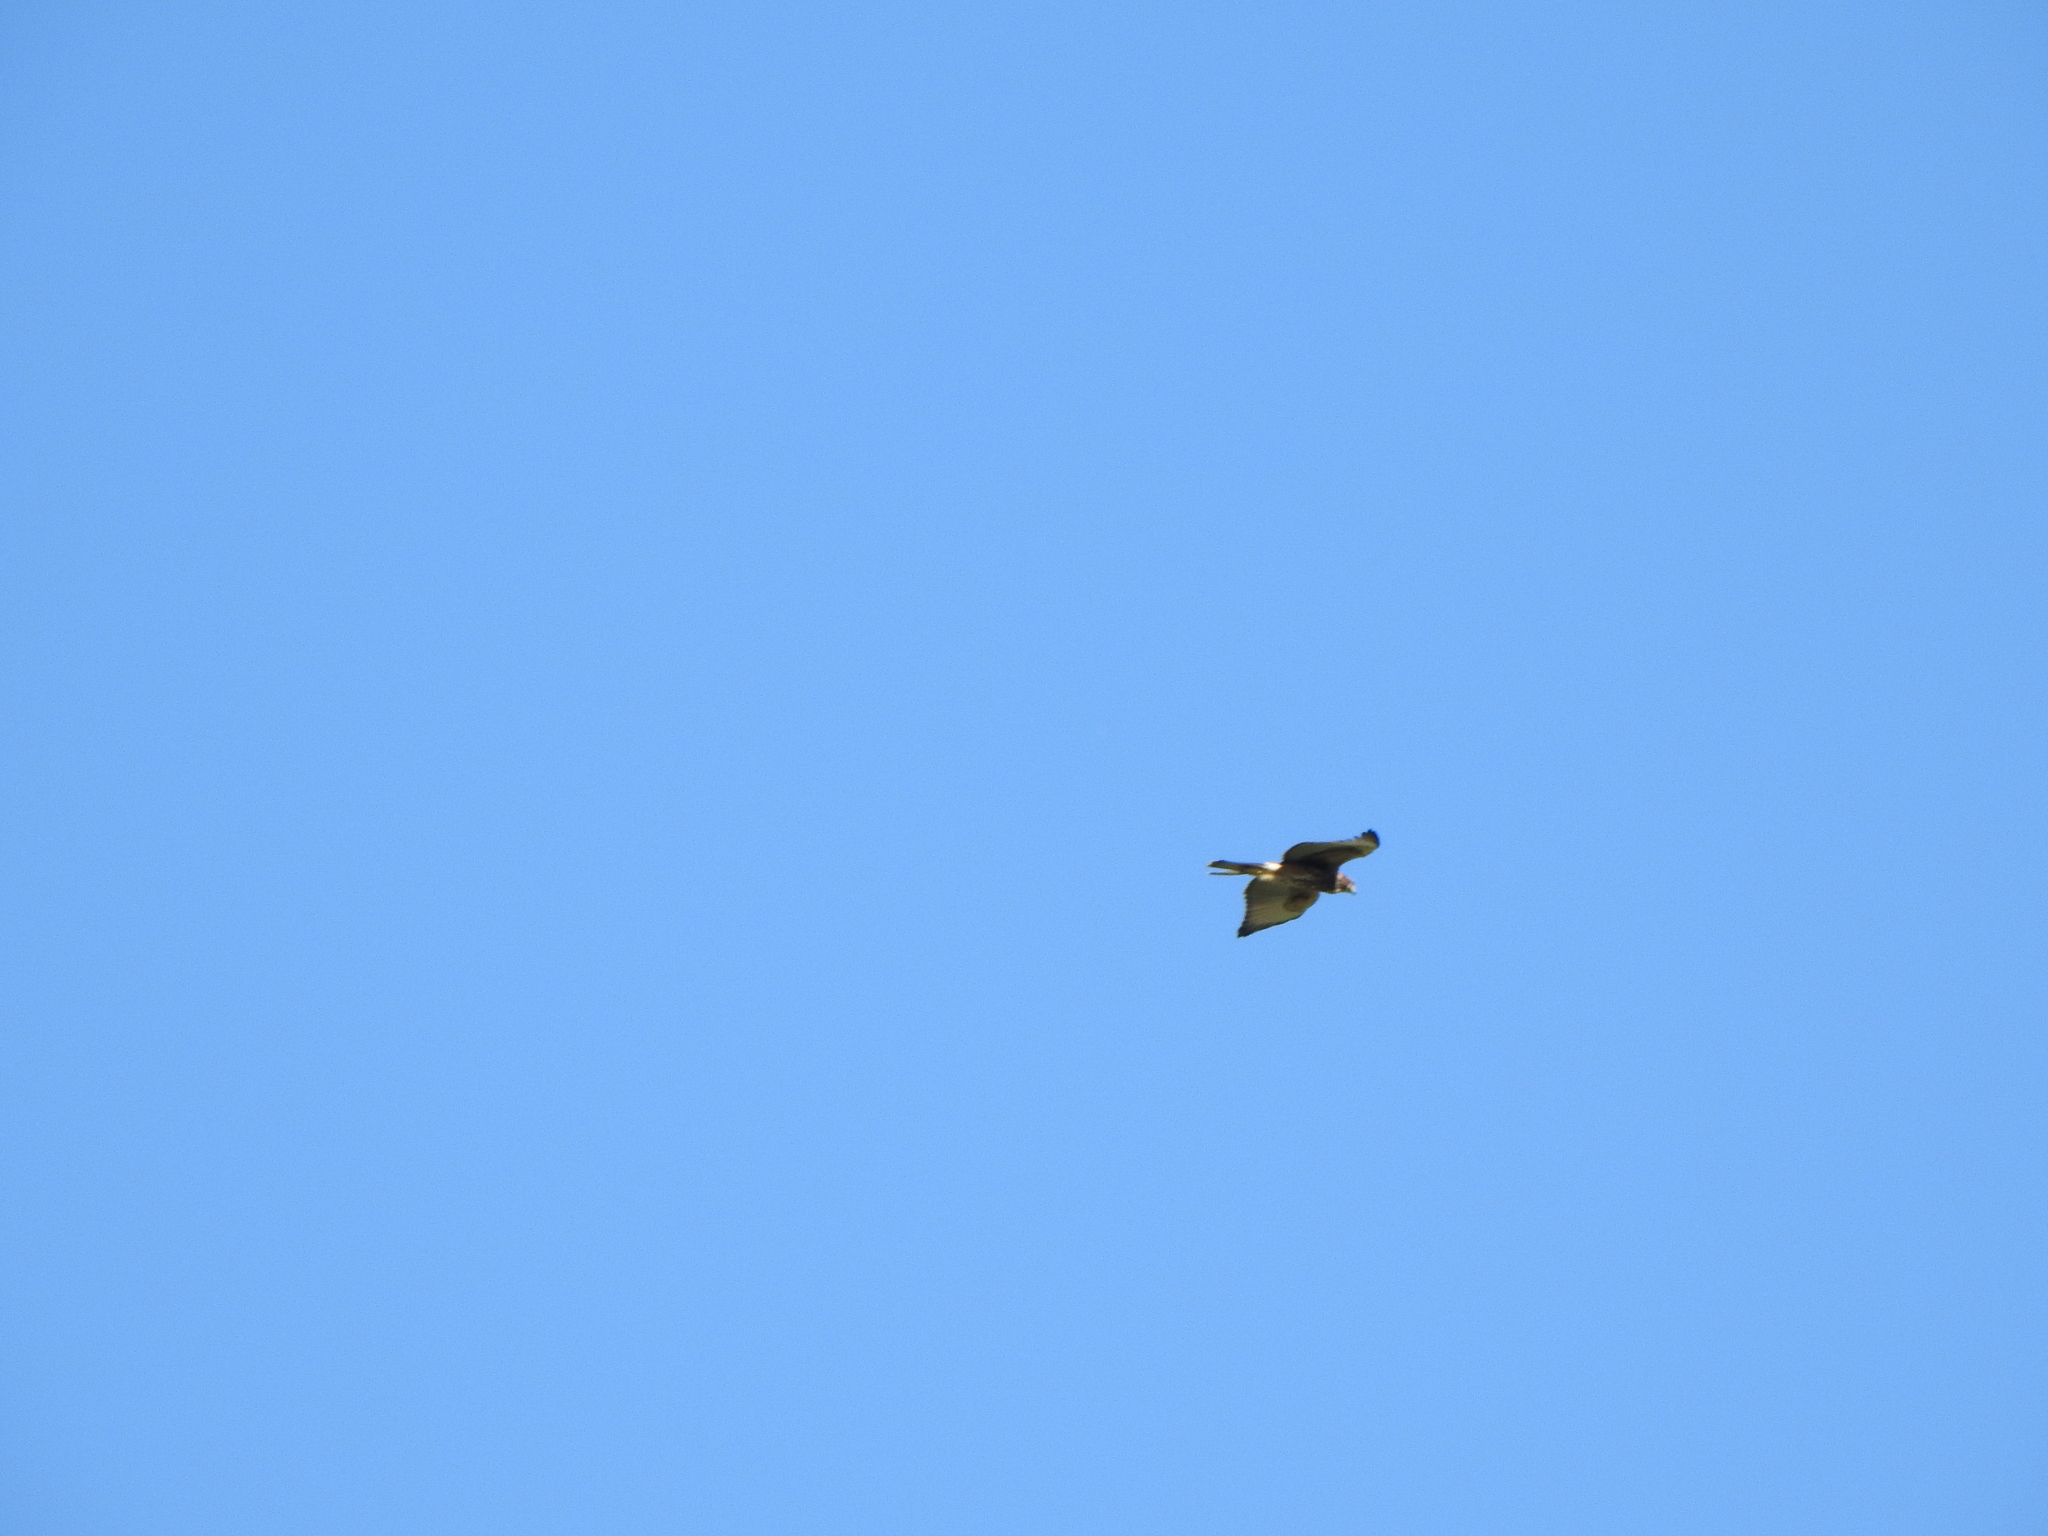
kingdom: Animalia
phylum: Chordata
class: Aves
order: Accipitriformes
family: Accipitridae
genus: Parabuteo
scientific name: Parabuteo unicinctus
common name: Harris's hawk
